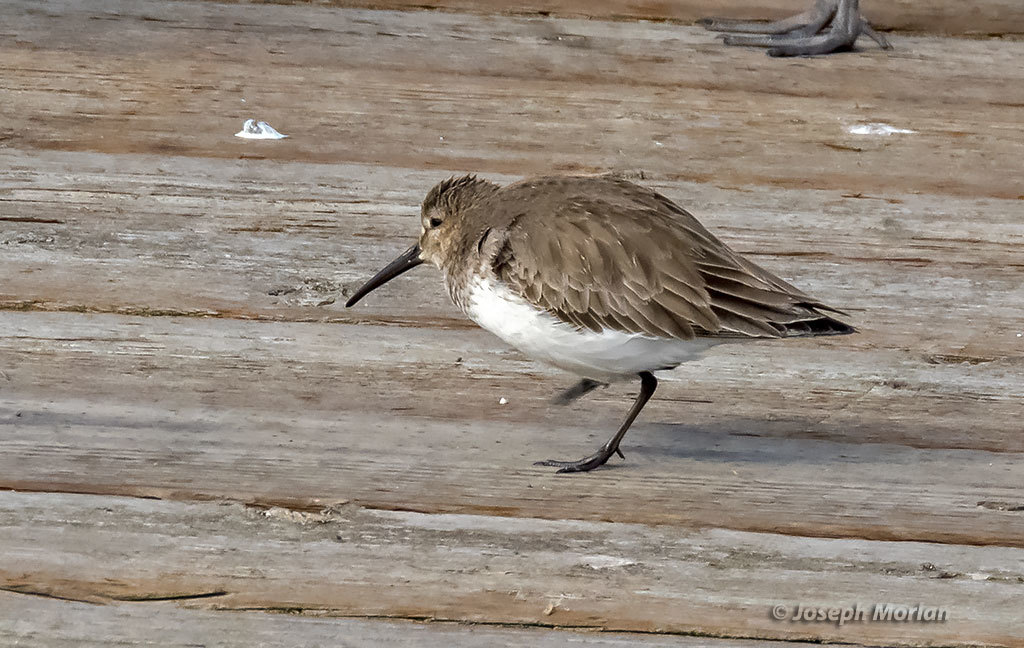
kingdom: Animalia
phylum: Chordata
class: Aves
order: Charadriiformes
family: Scolopacidae
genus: Calidris
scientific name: Calidris alpina
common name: Dunlin
